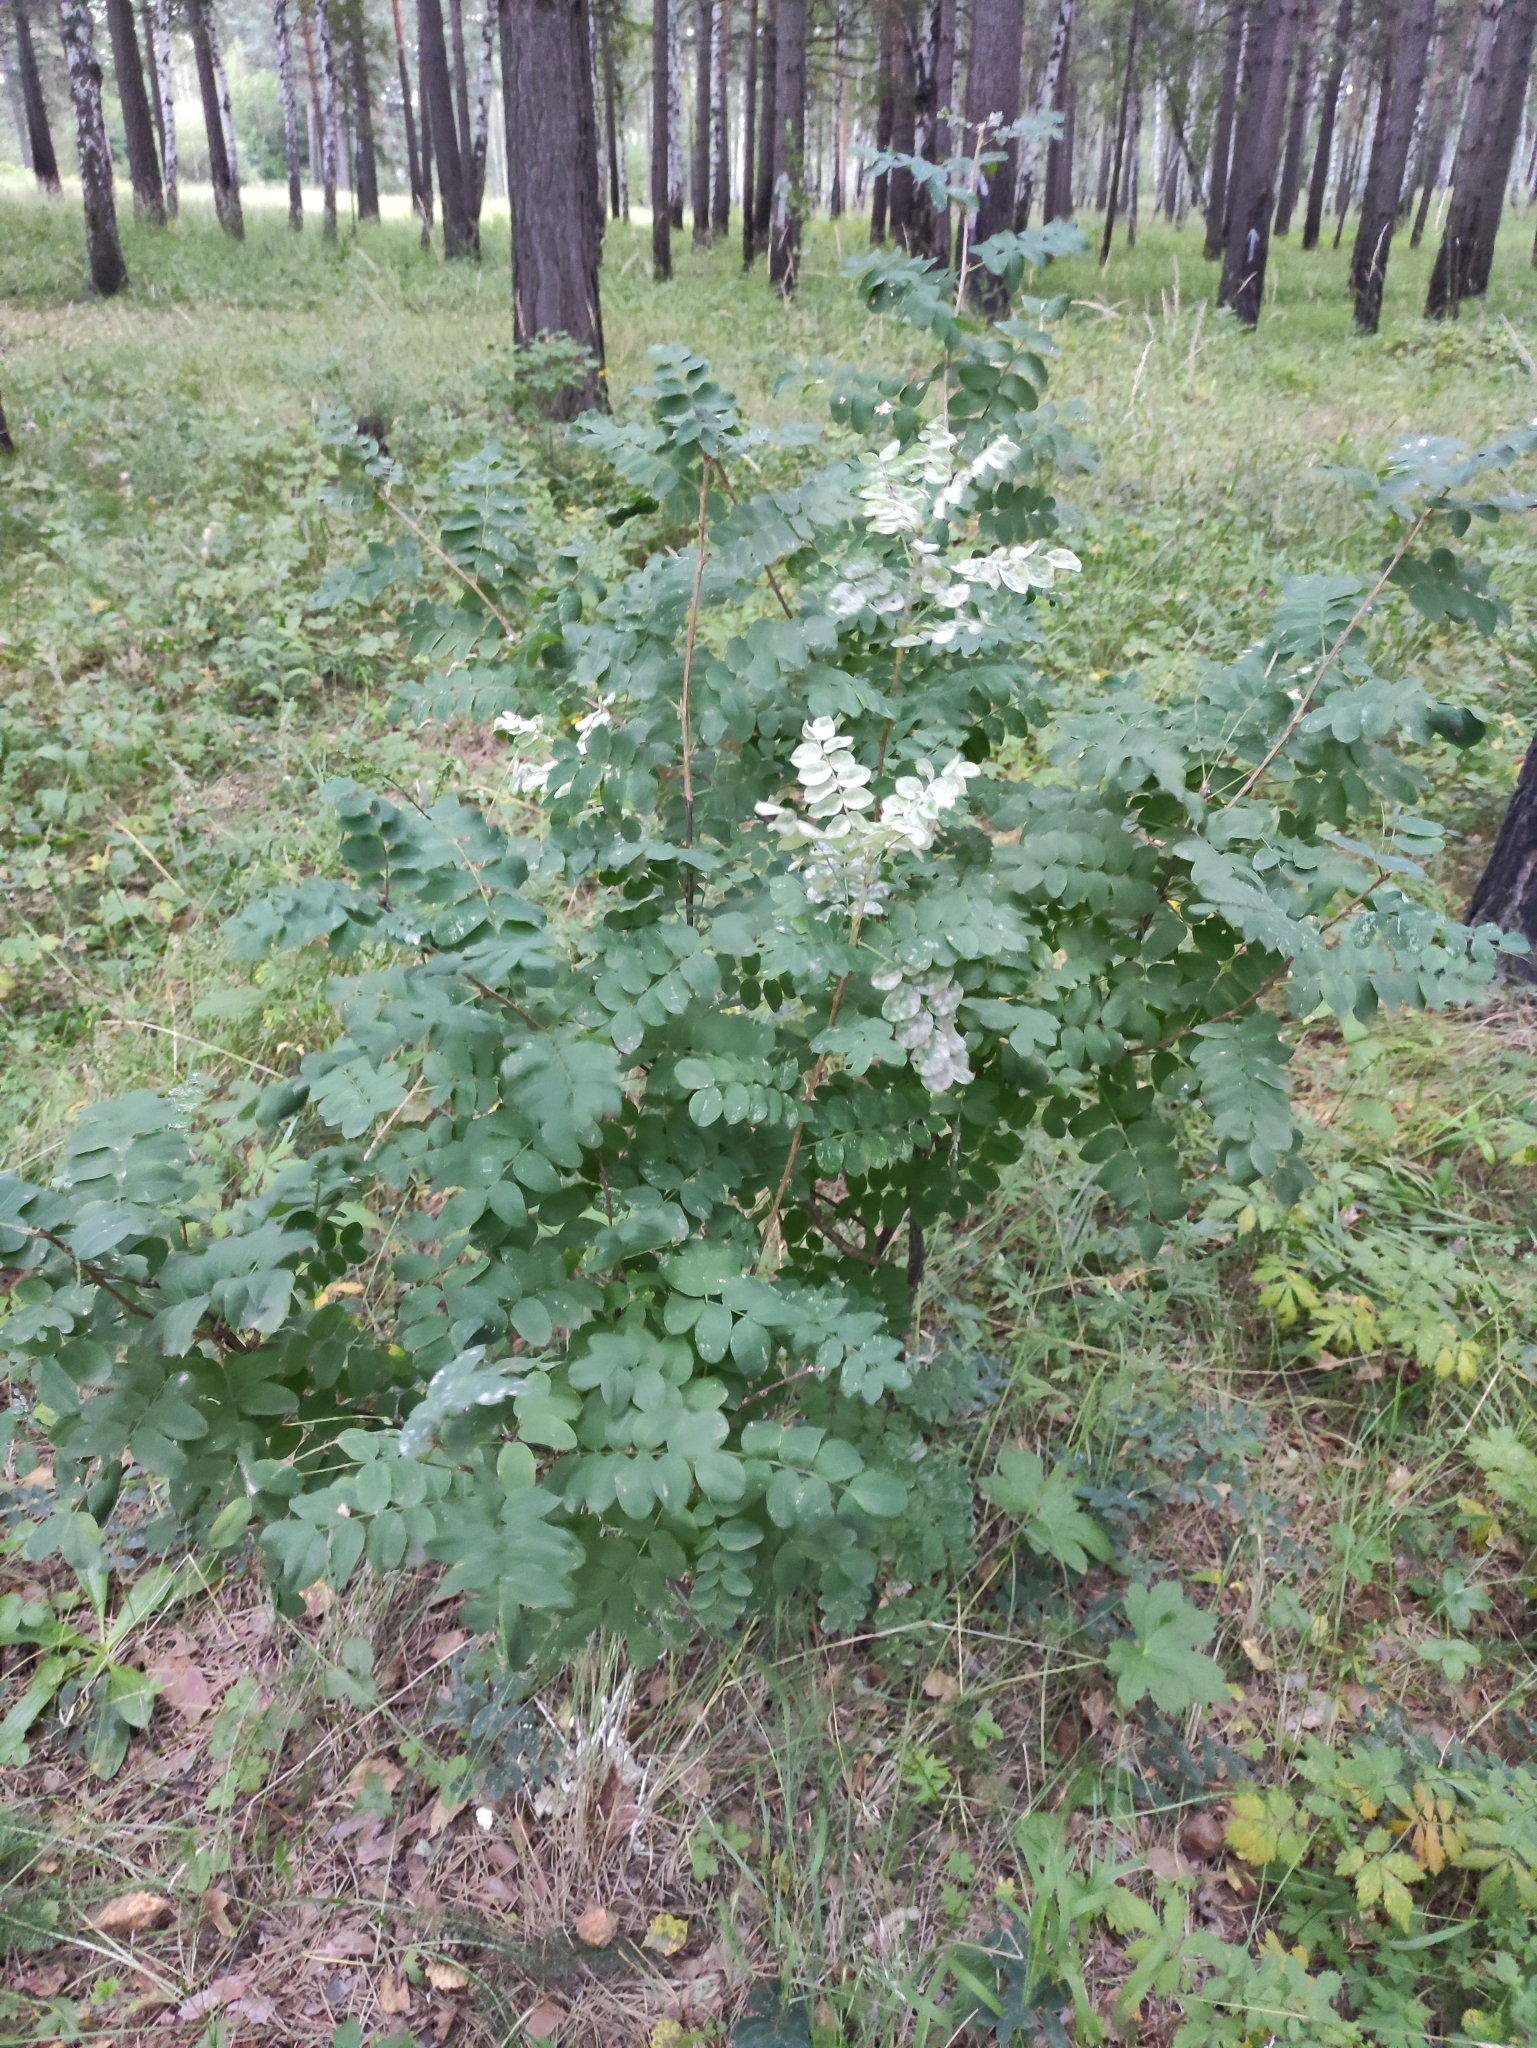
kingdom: Plantae
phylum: Tracheophyta
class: Magnoliopsida
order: Fabales
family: Fabaceae
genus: Caragana
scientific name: Caragana arborescens
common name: Siberian peashrub
